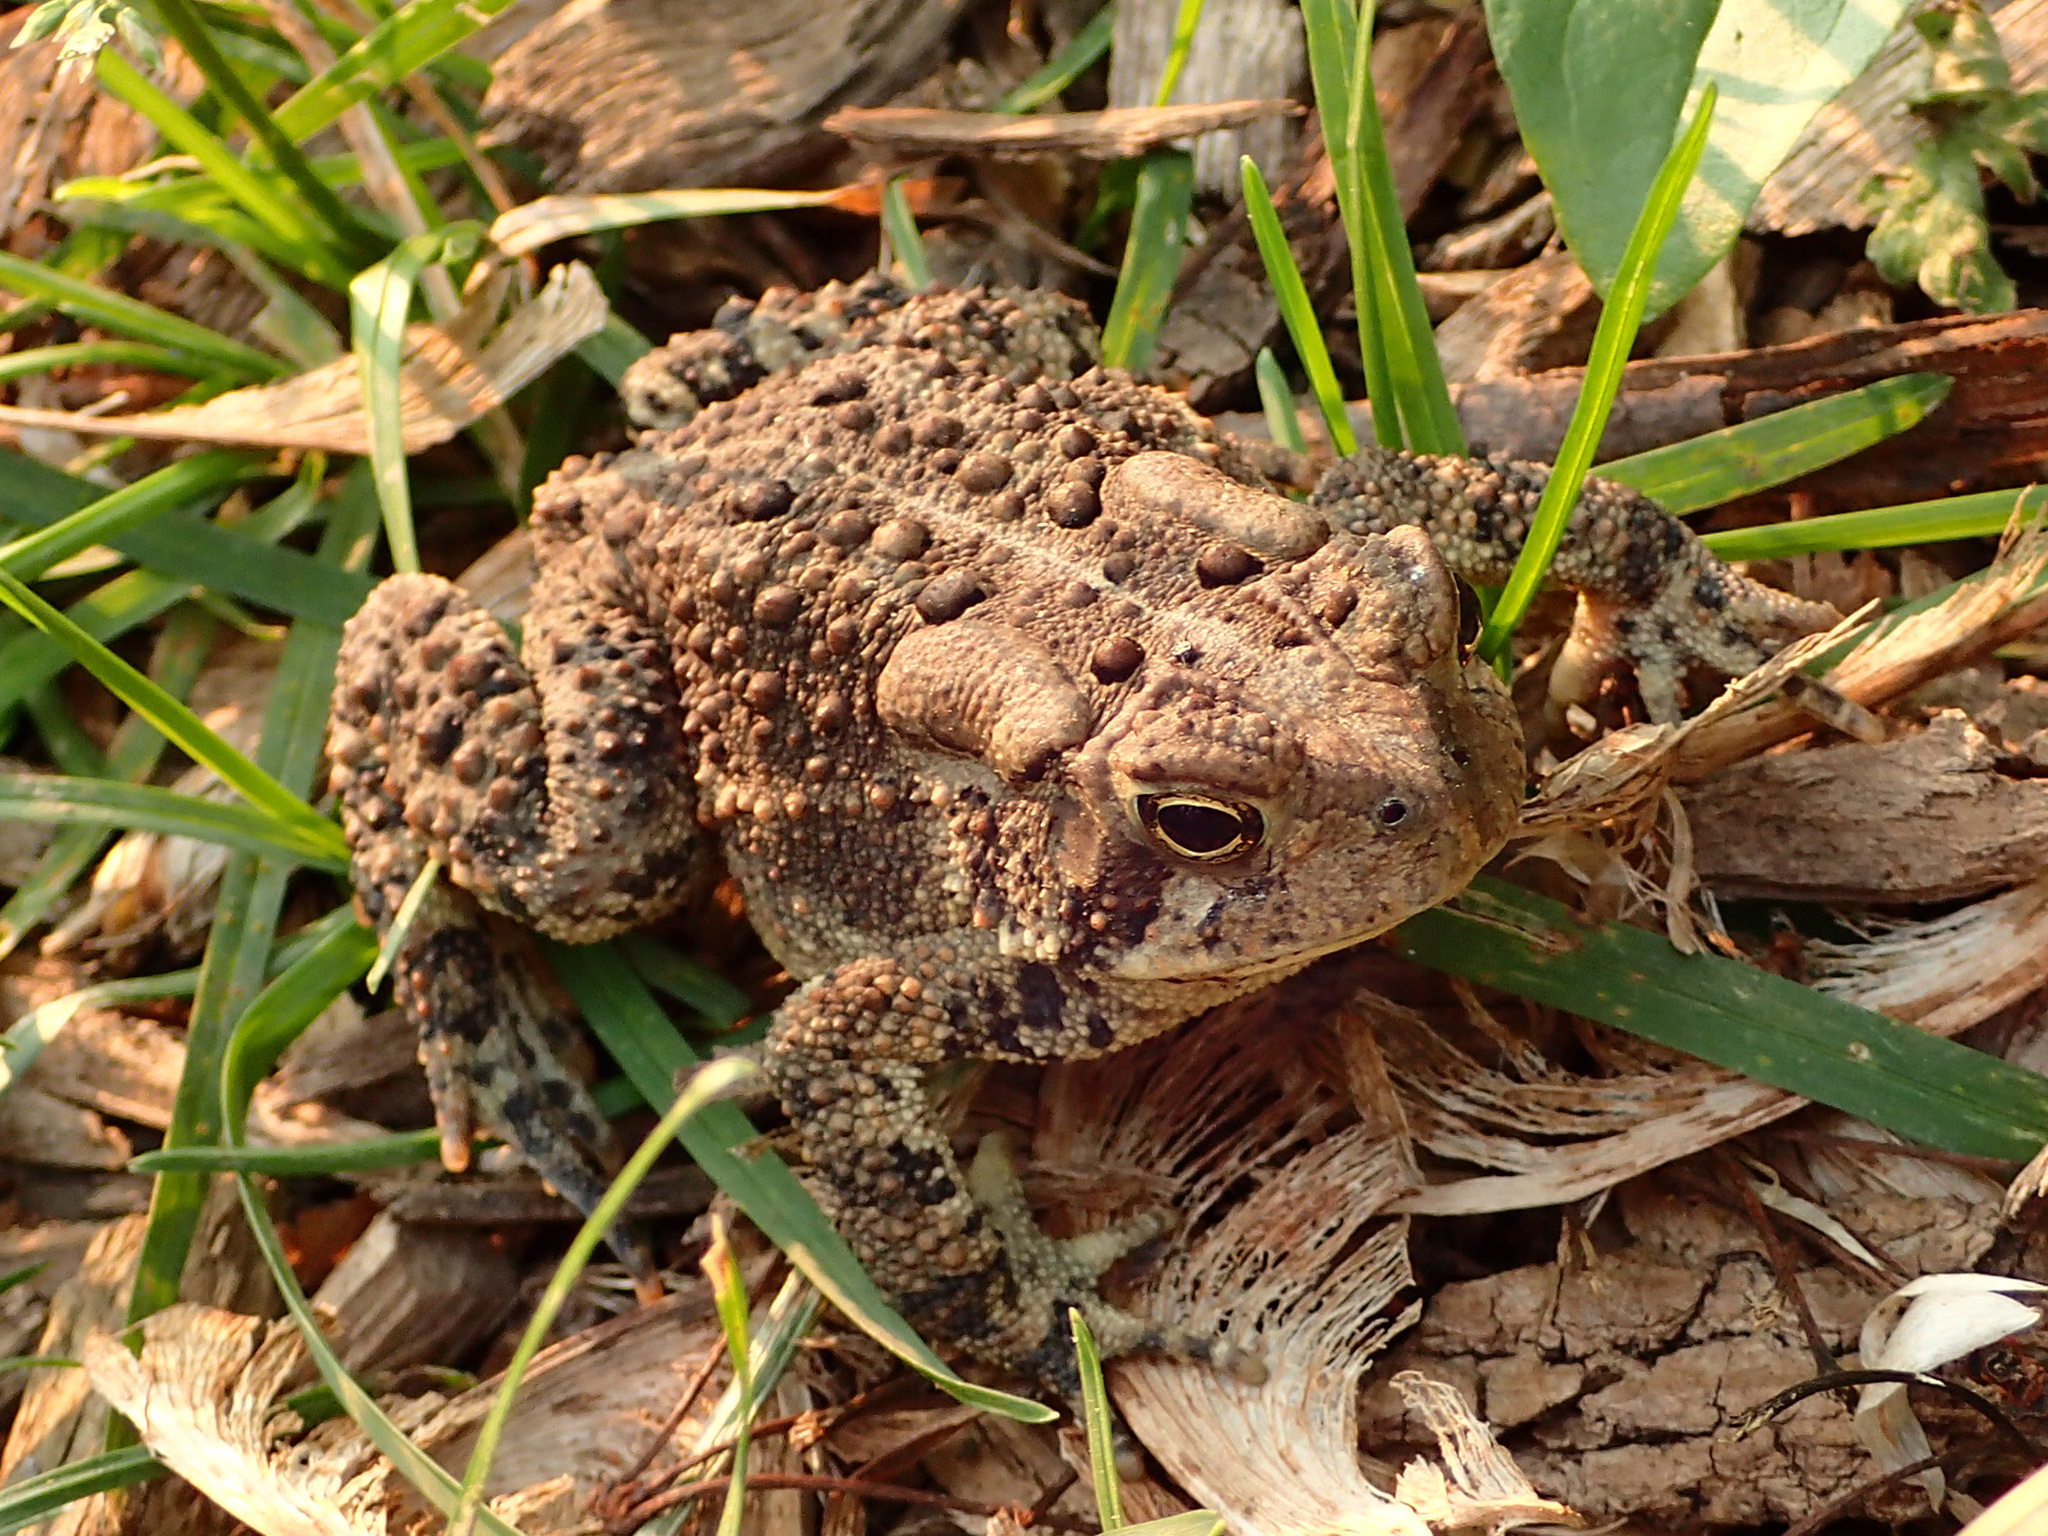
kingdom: Animalia
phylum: Chordata
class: Amphibia
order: Anura
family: Bufonidae
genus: Anaxyrus
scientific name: Anaxyrus americanus
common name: American toad
